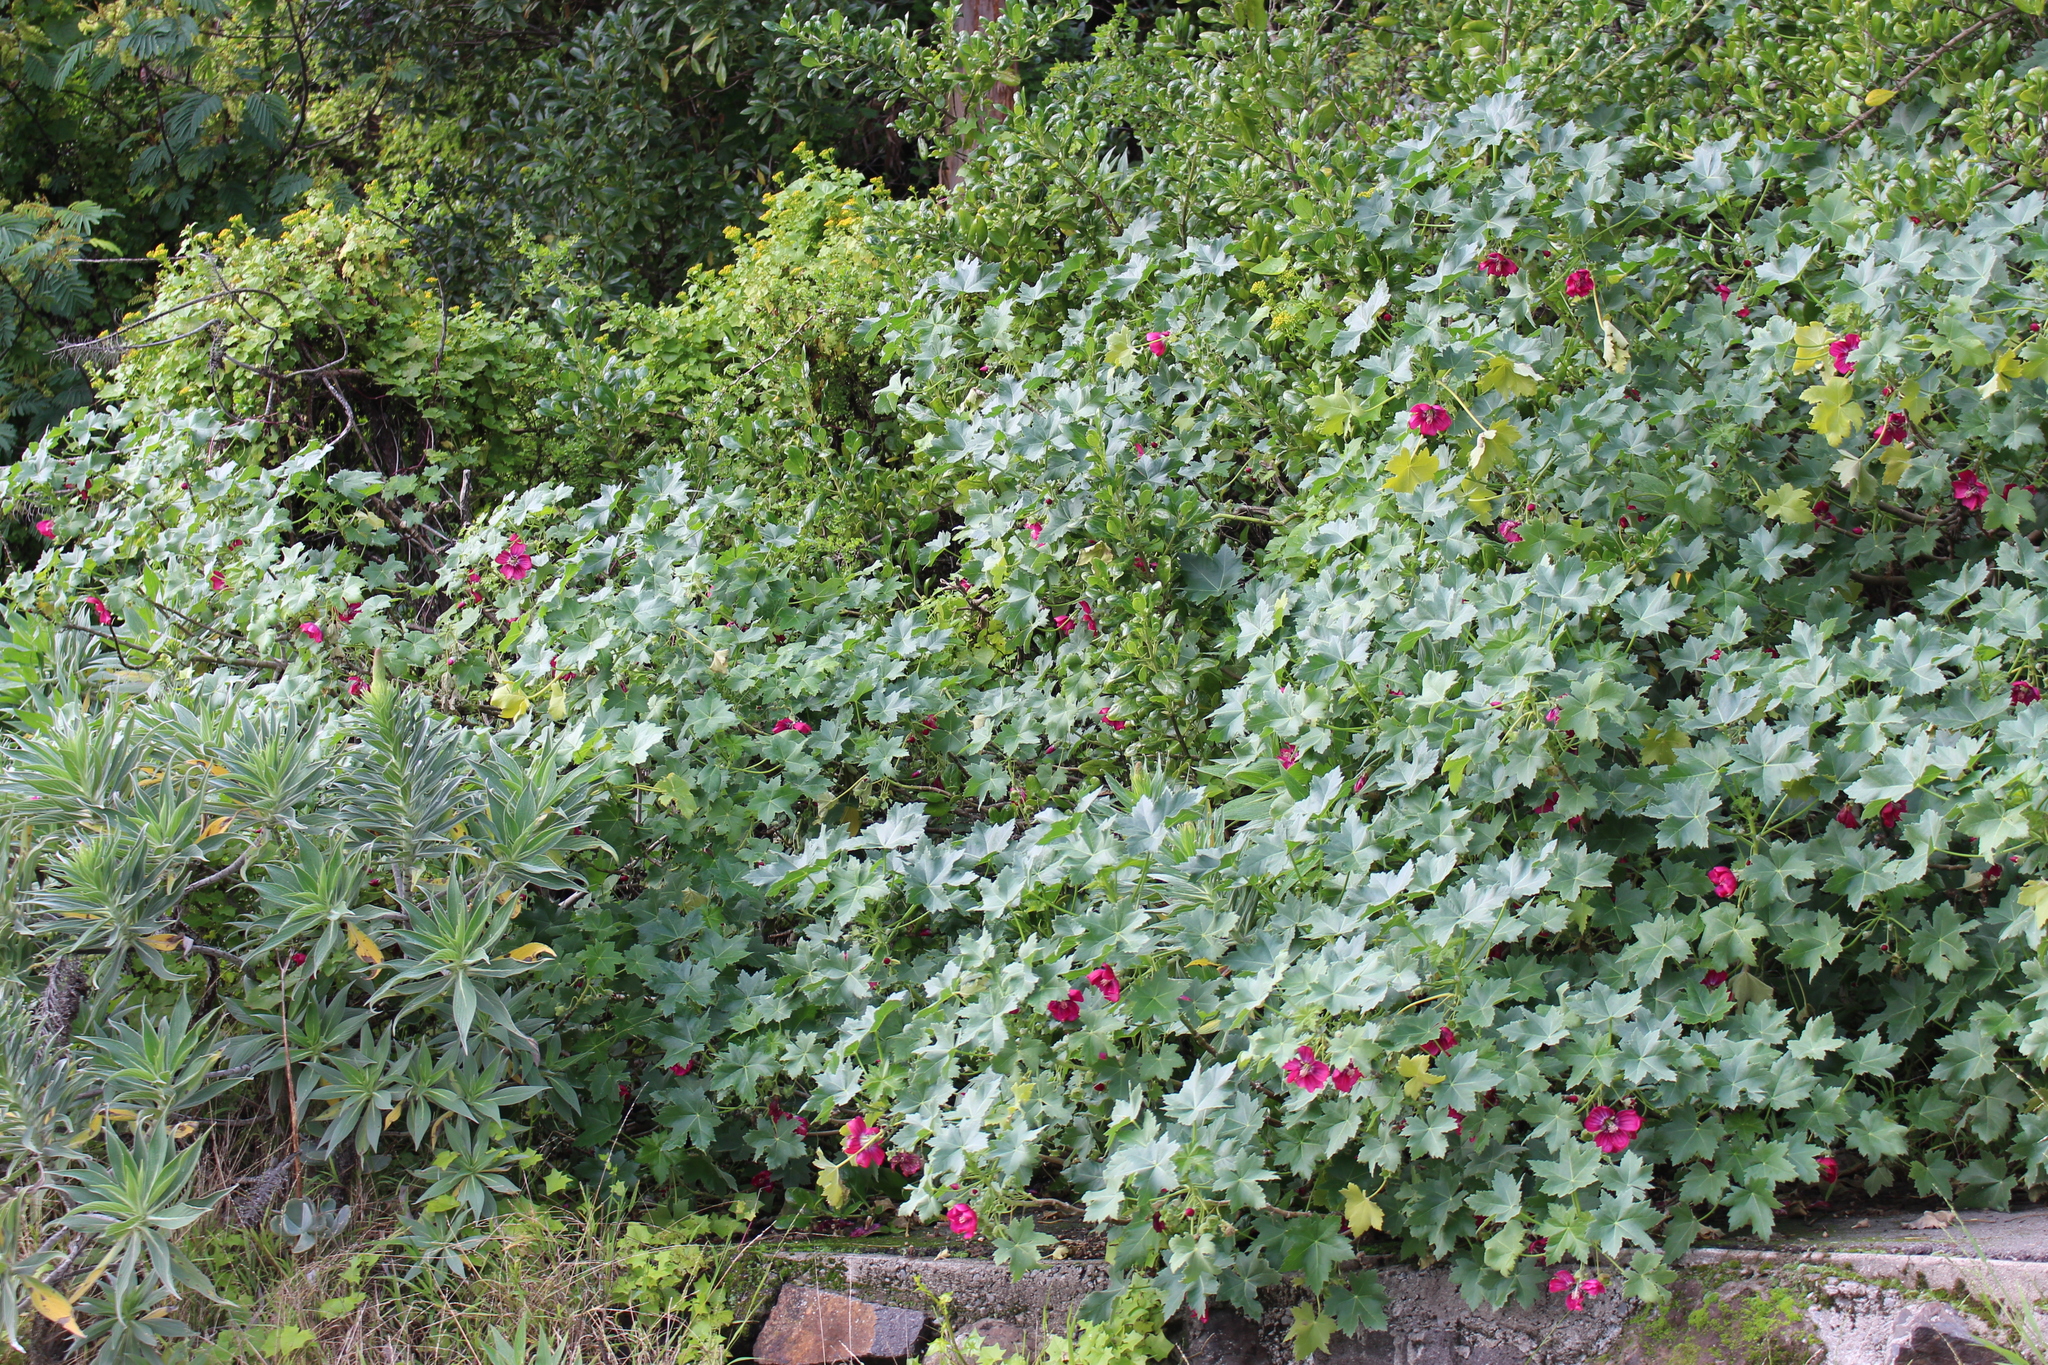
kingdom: Plantae
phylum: Tracheophyta
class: Magnoliopsida
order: Malvales
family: Malvaceae
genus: Malva
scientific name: Malva assurgentiflora
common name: Island mallow
